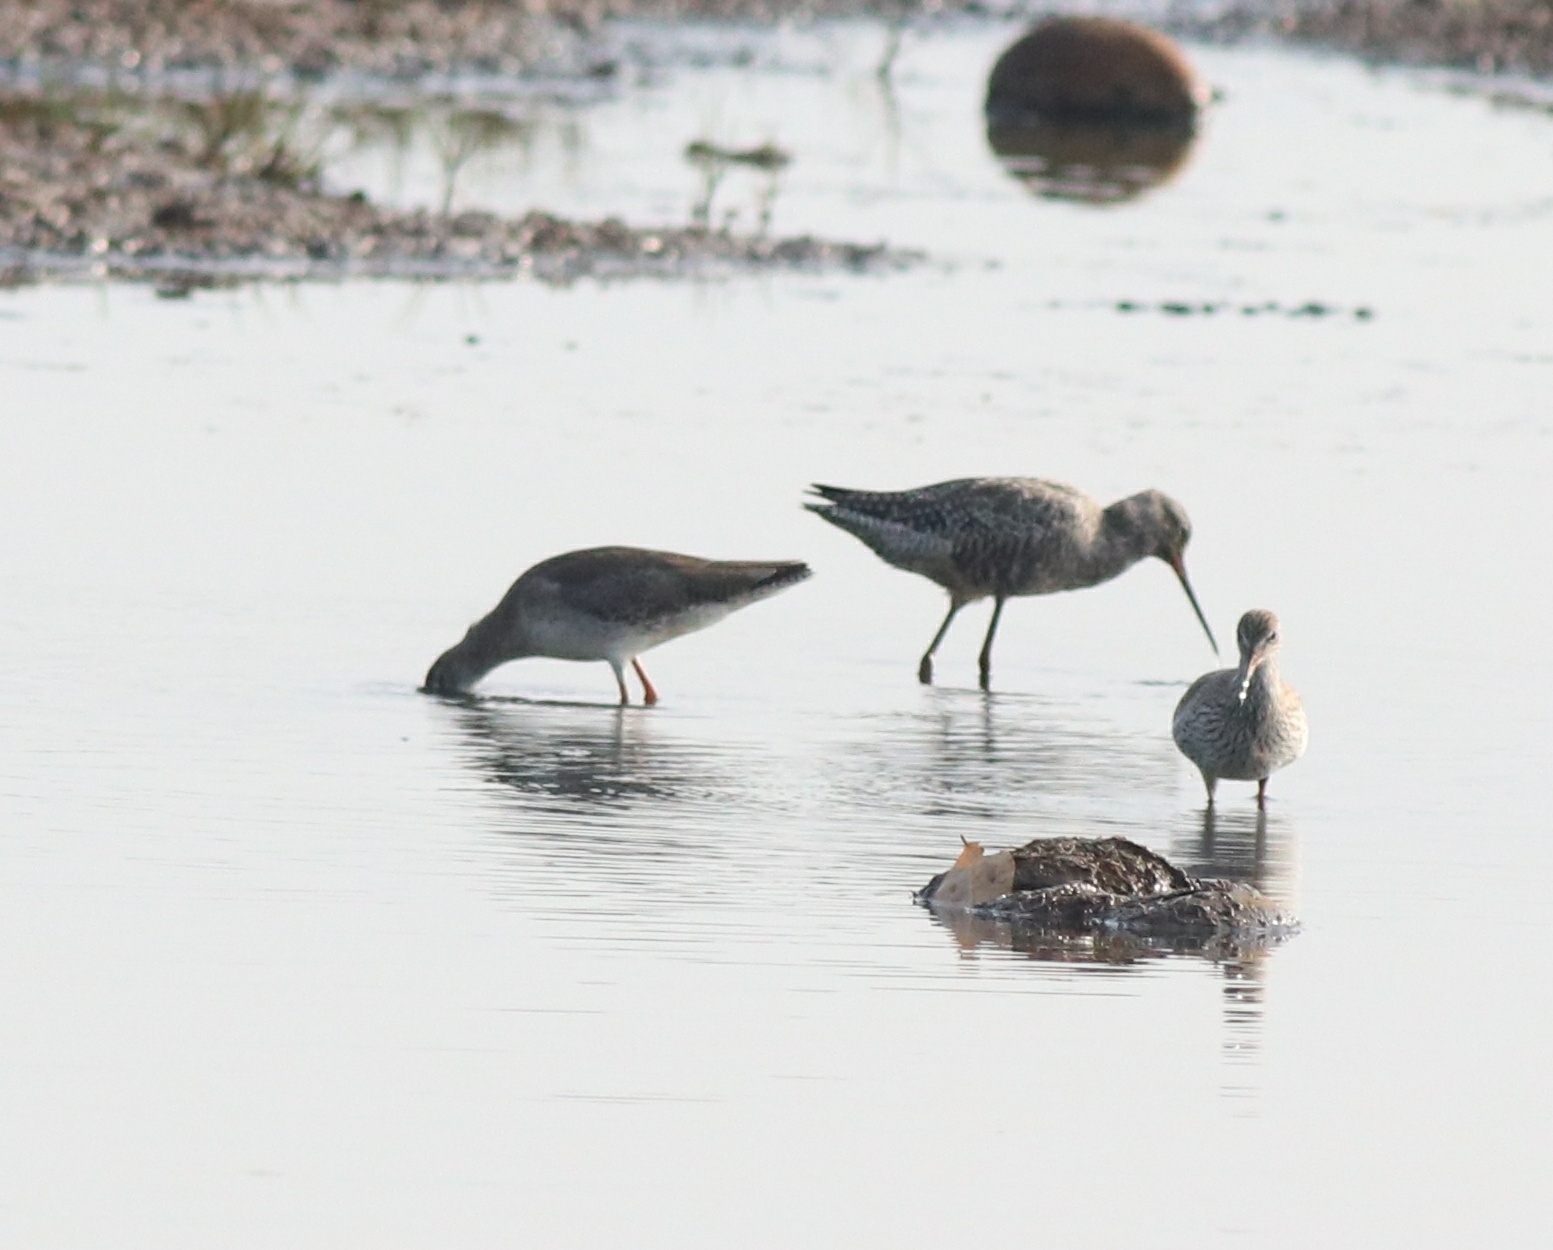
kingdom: Animalia
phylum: Chordata
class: Aves
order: Charadriiformes
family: Scolopacidae
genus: Tringa
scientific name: Tringa totanus
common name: Common redshank
